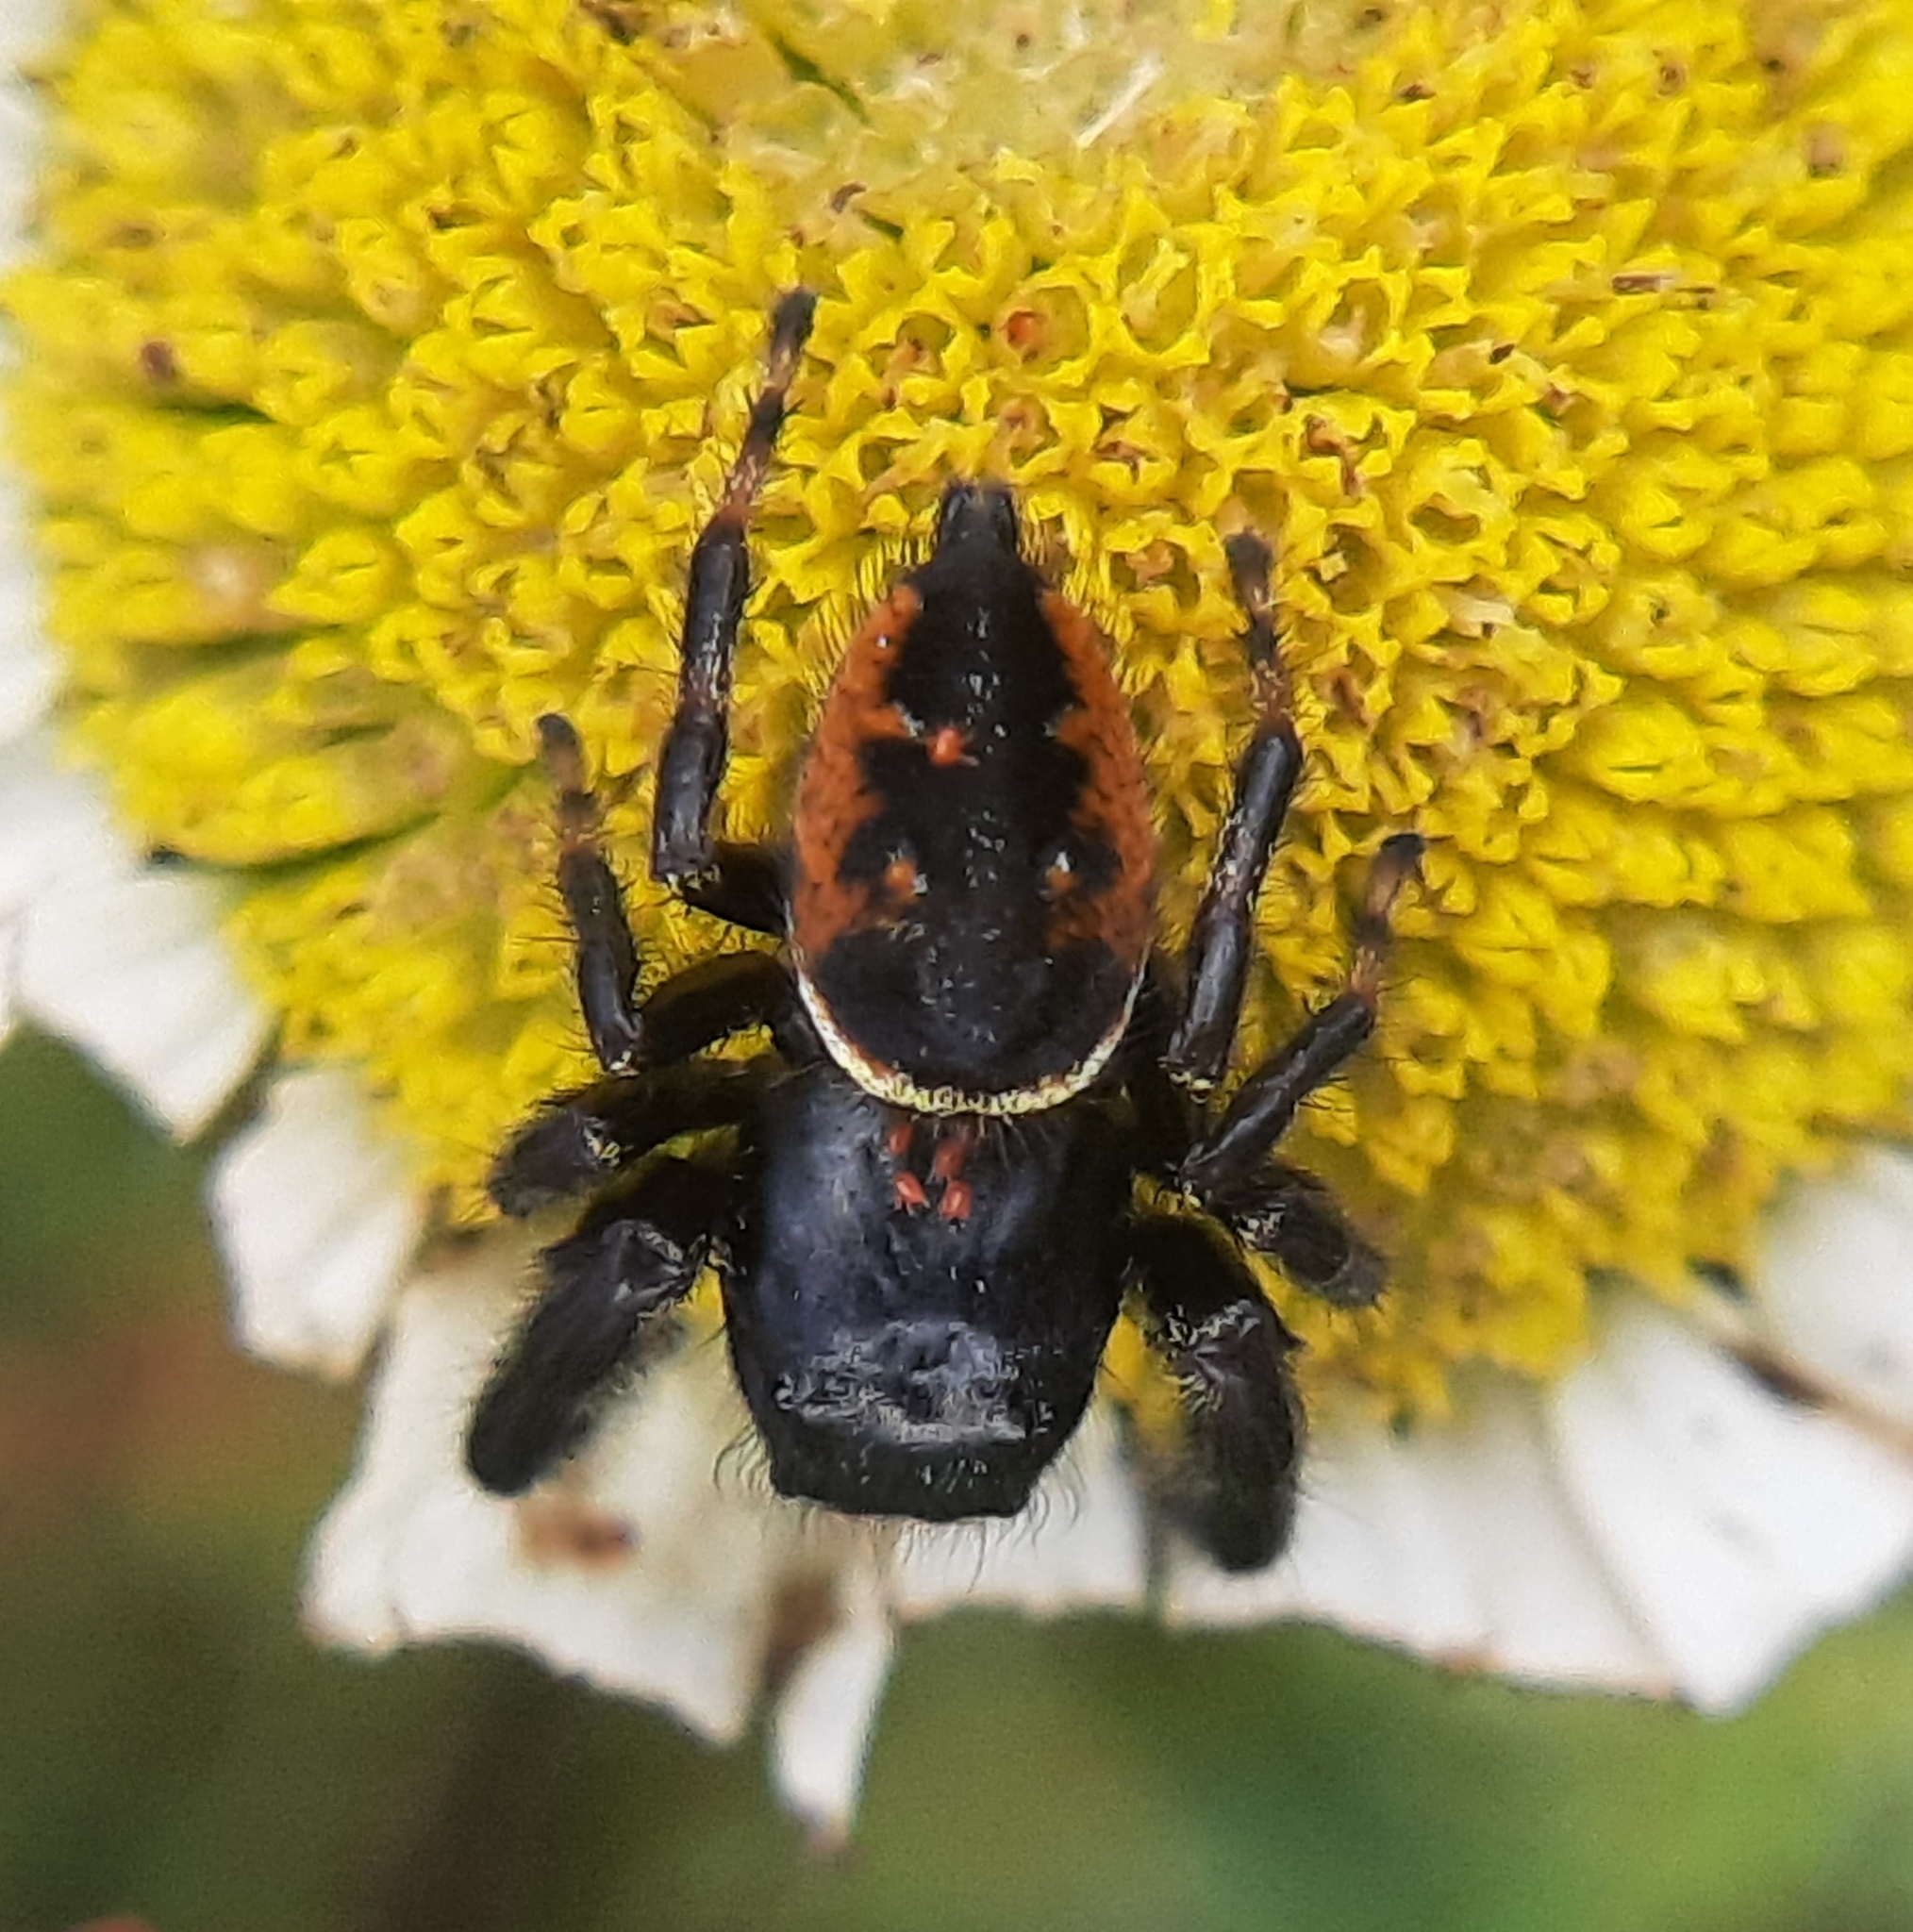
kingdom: Animalia
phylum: Arthropoda
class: Arachnida
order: Araneae
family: Salticidae
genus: Phidippus
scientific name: Phidippus clarus
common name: Brilliant jumping spider
